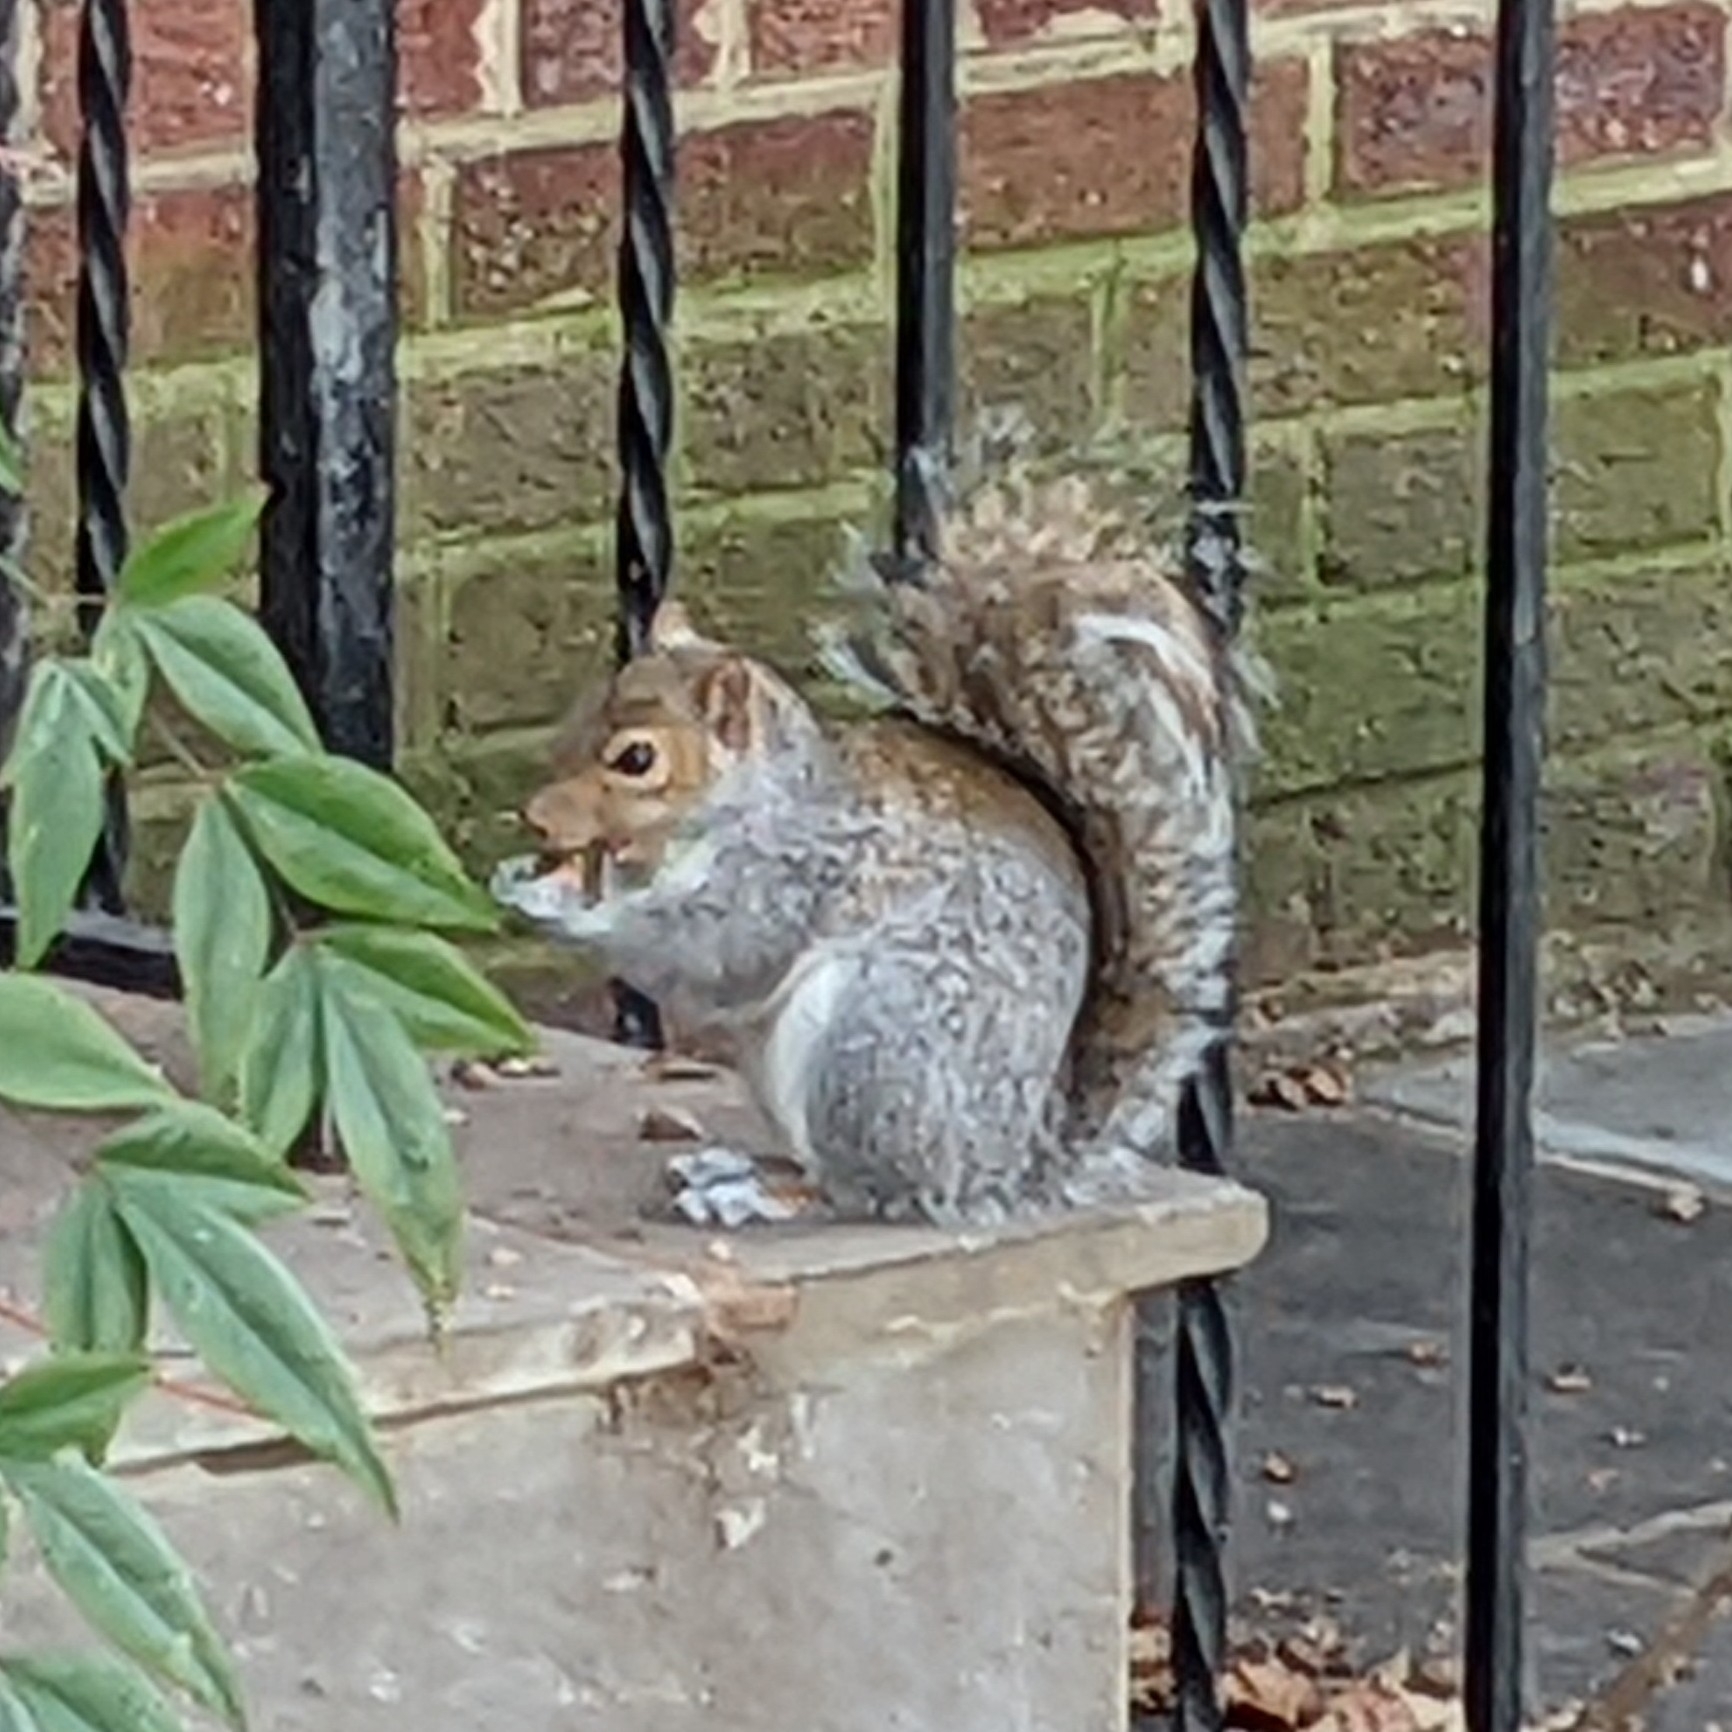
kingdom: Animalia
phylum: Chordata
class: Mammalia
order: Rodentia
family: Sciuridae
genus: Sciurus
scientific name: Sciurus carolinensis
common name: Eastern gray squirrel
